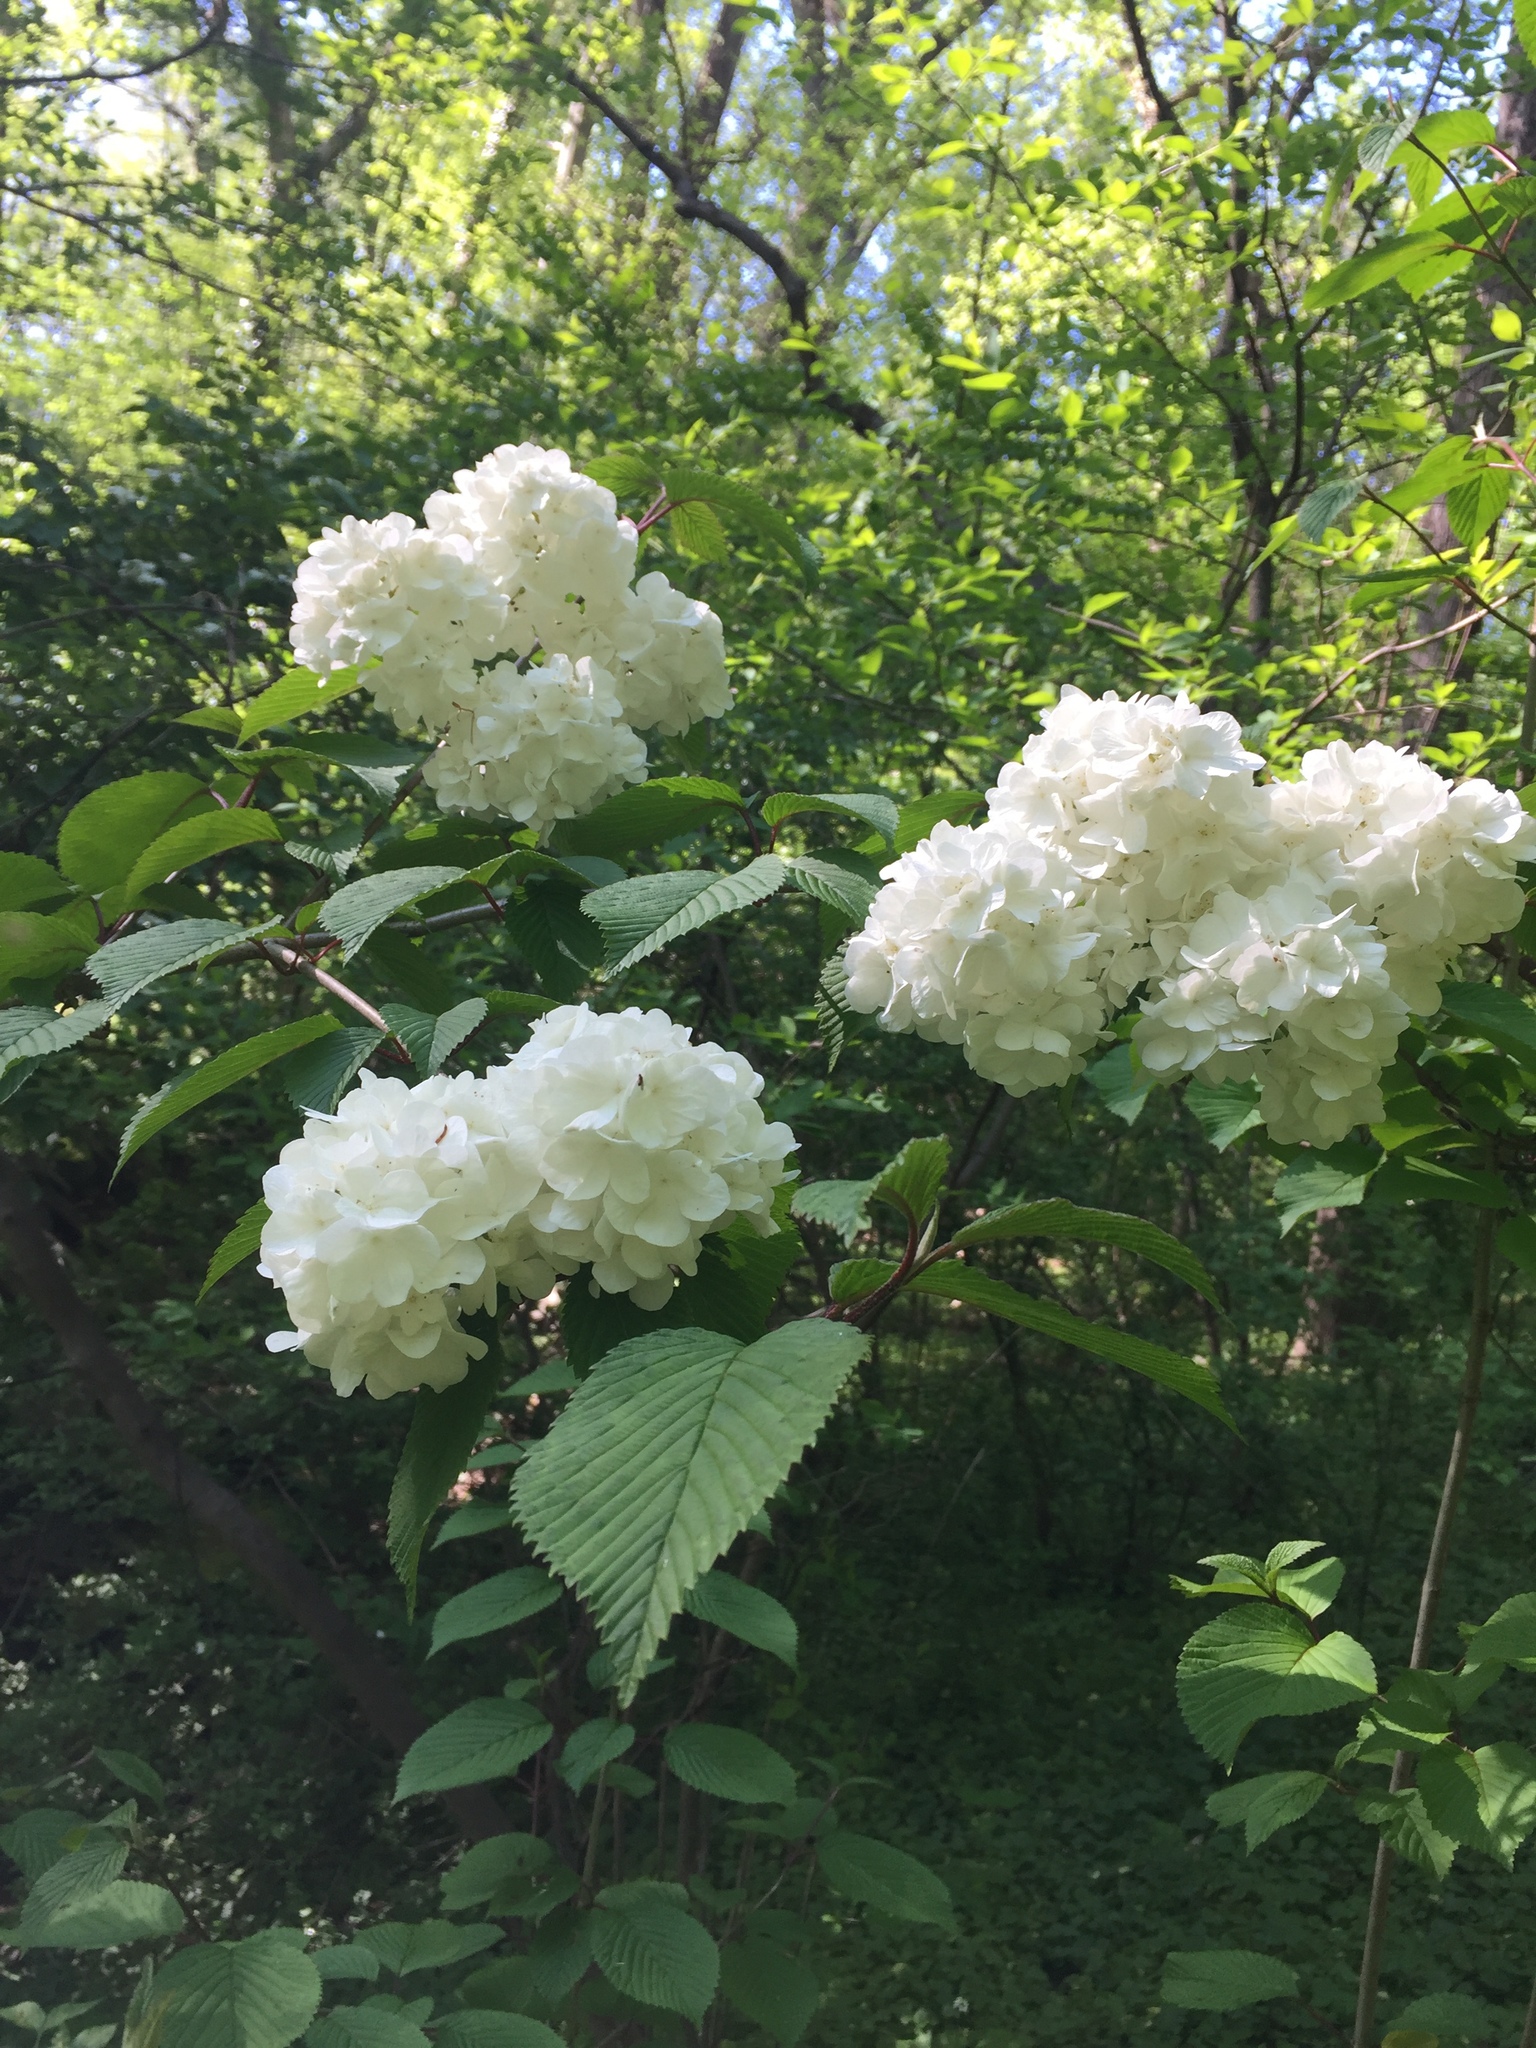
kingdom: Plantae
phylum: Tracheophyta
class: Magnoliopsida
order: Dipsacales
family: Viburnaceae
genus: Viburnum
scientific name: Viburnum plicatum
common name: Japanese snowball
